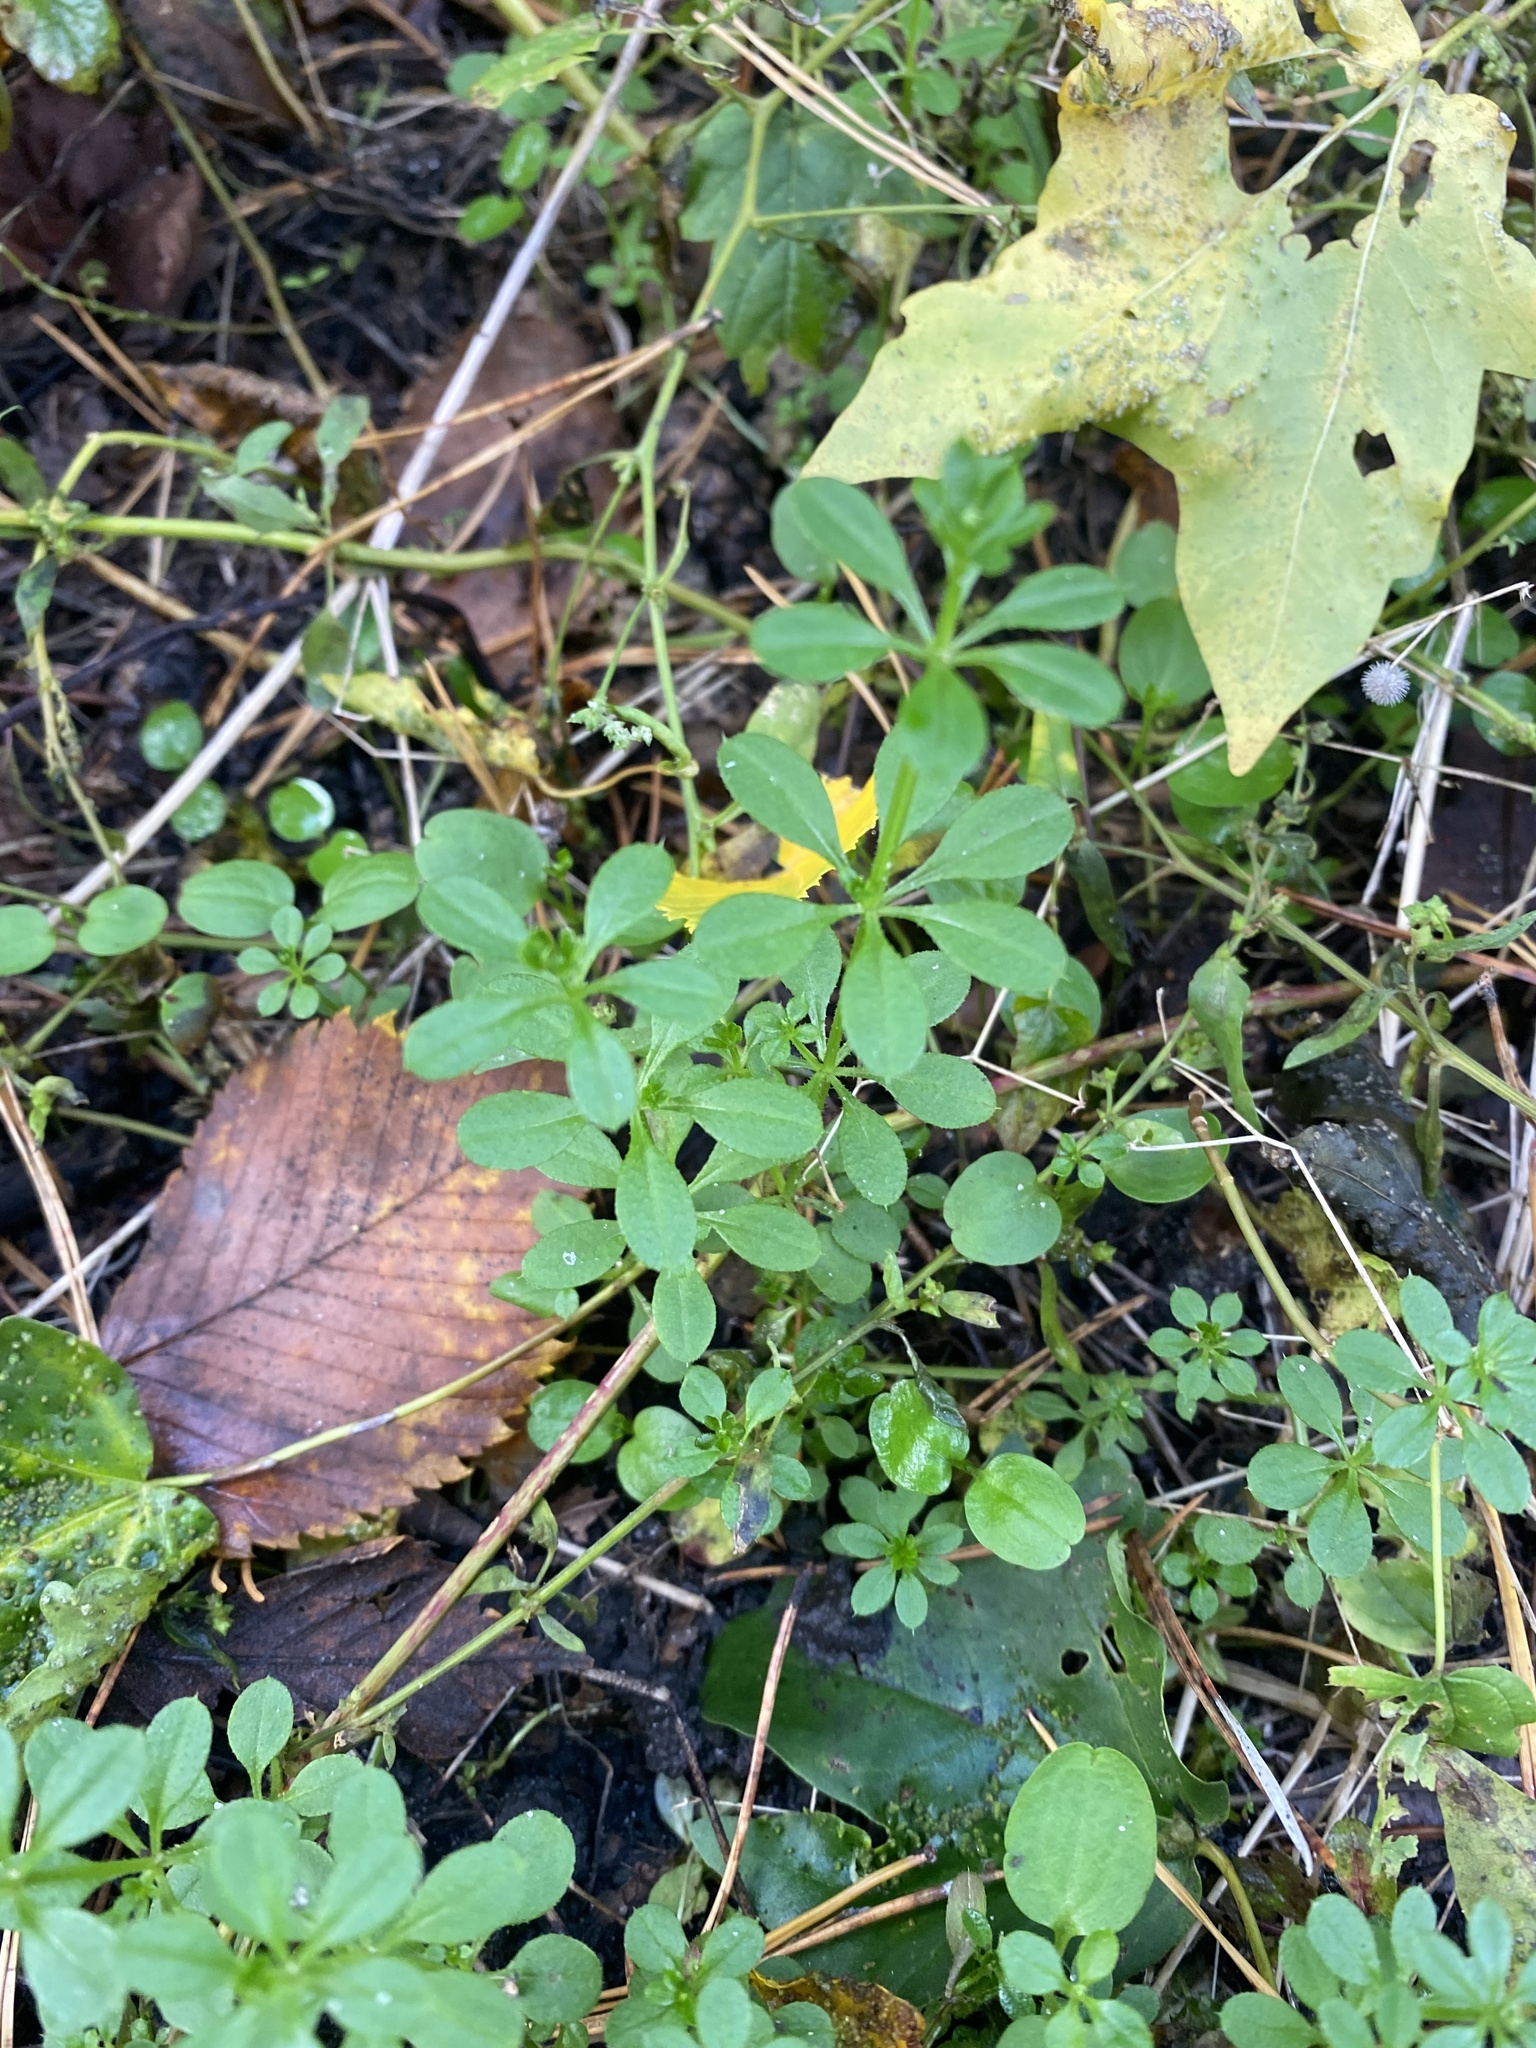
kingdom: Plantae
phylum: Tracheophyta
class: Magnoliopsida
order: Gentianales
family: Rubiaceae
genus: Galium
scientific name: Galium aparine
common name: Cleavers
